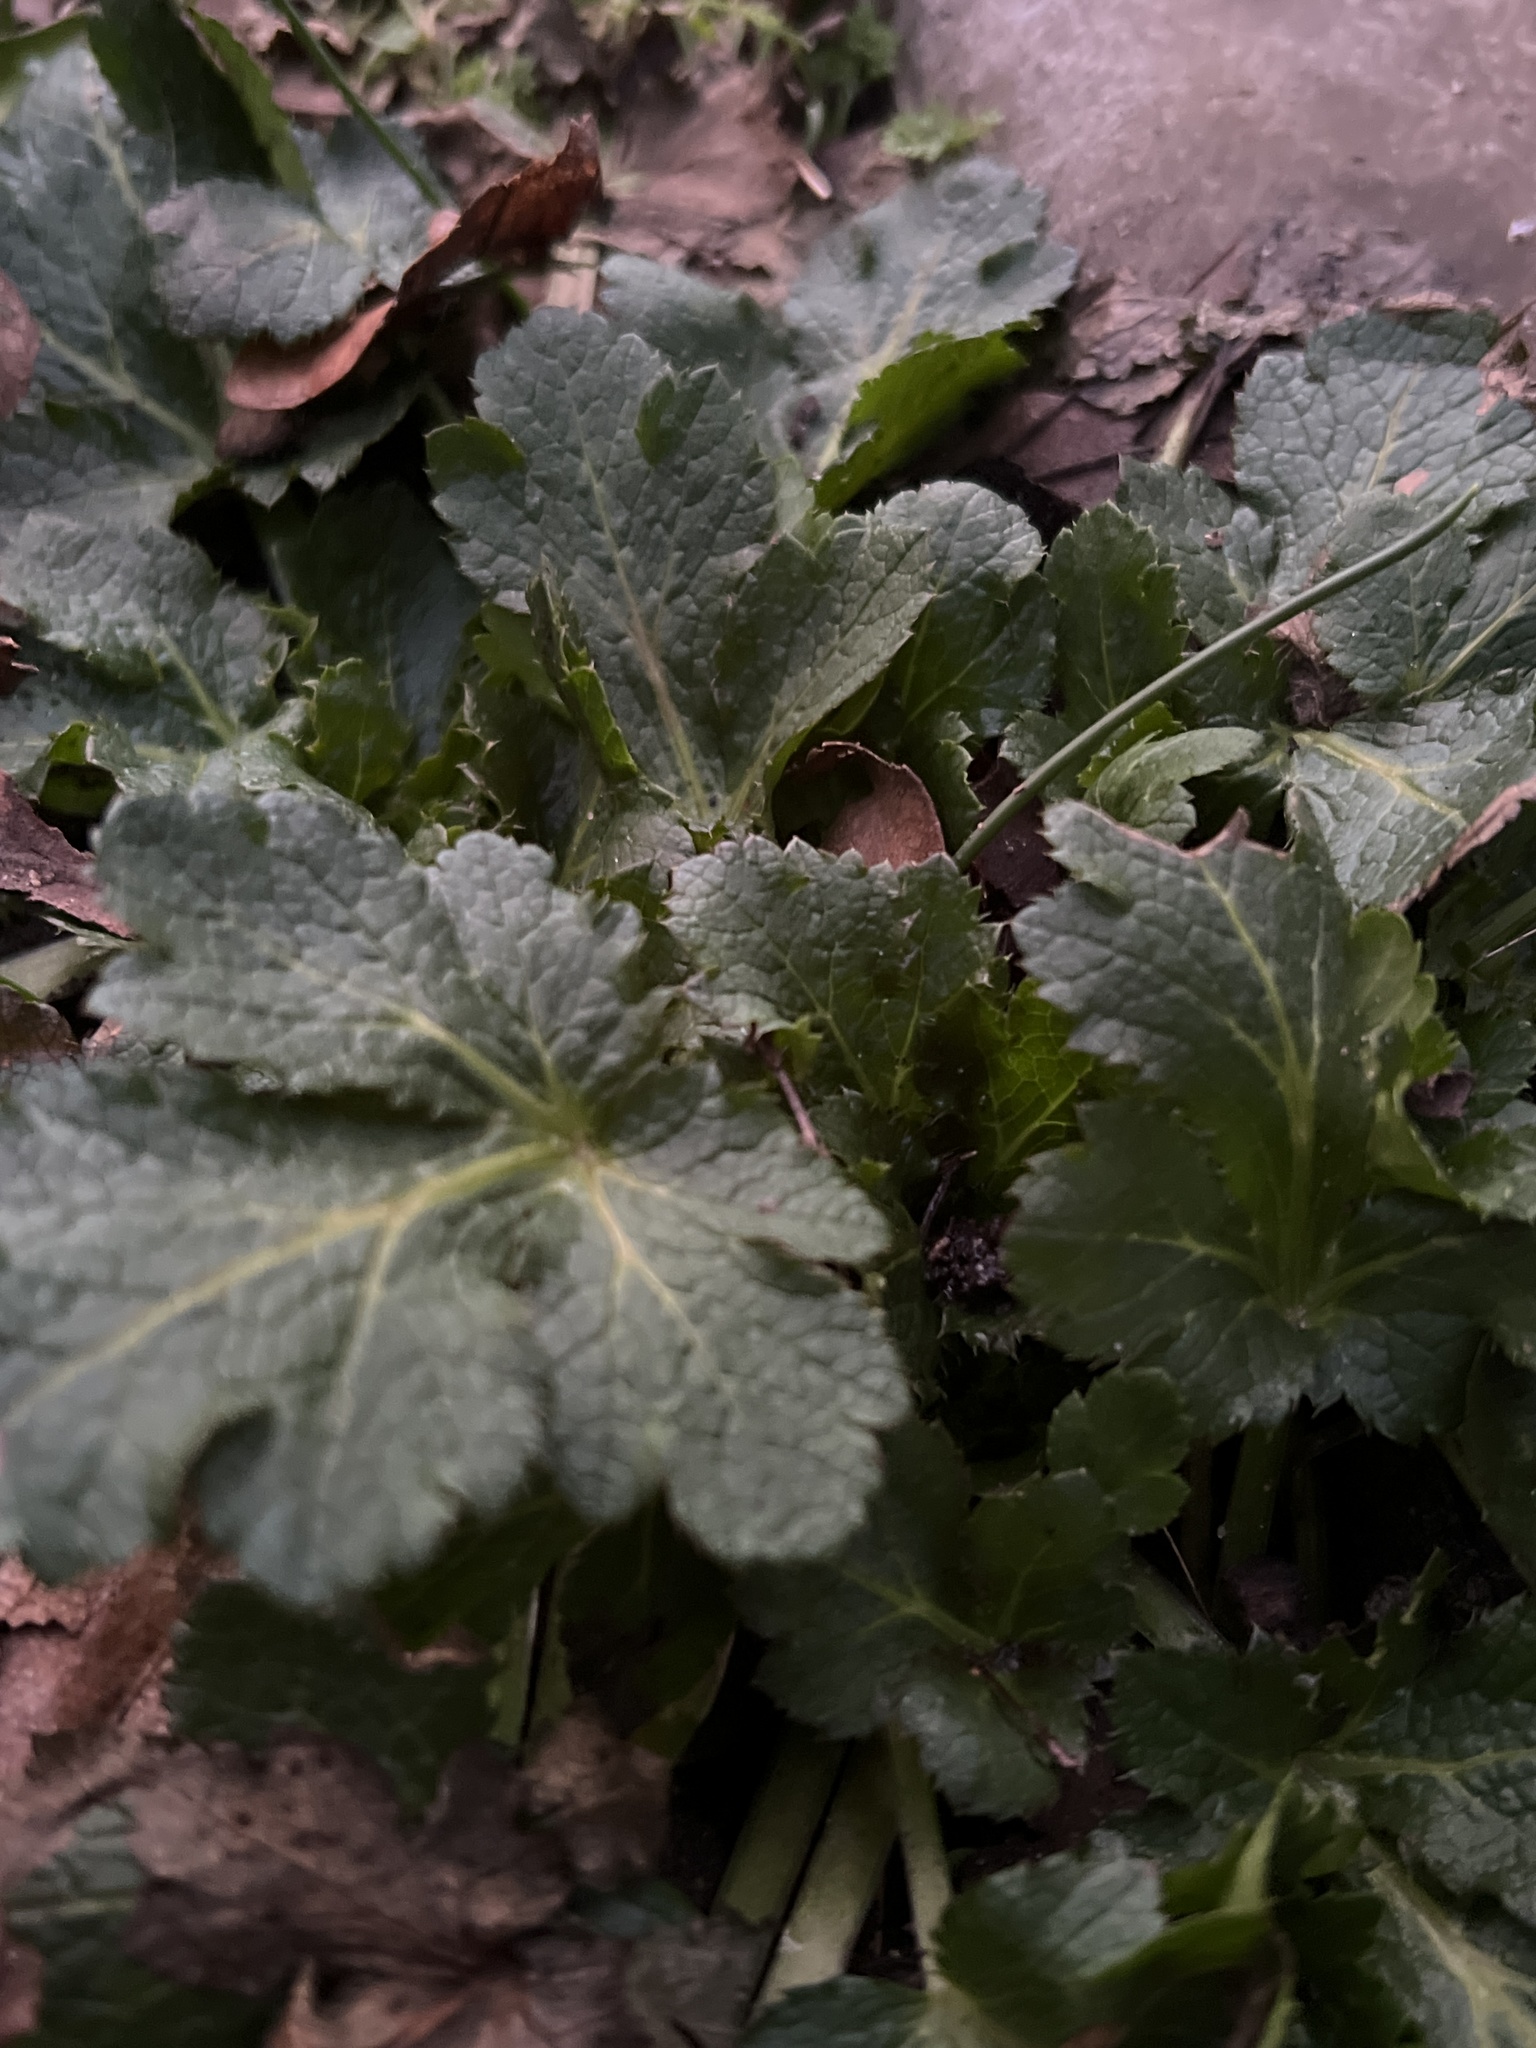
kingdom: Plantae
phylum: Tracheophyta
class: Magnoliopsida
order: Apiales
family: Apiaceae
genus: Sanicula
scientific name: Sanicula crassicaulis
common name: Western snakeroot
